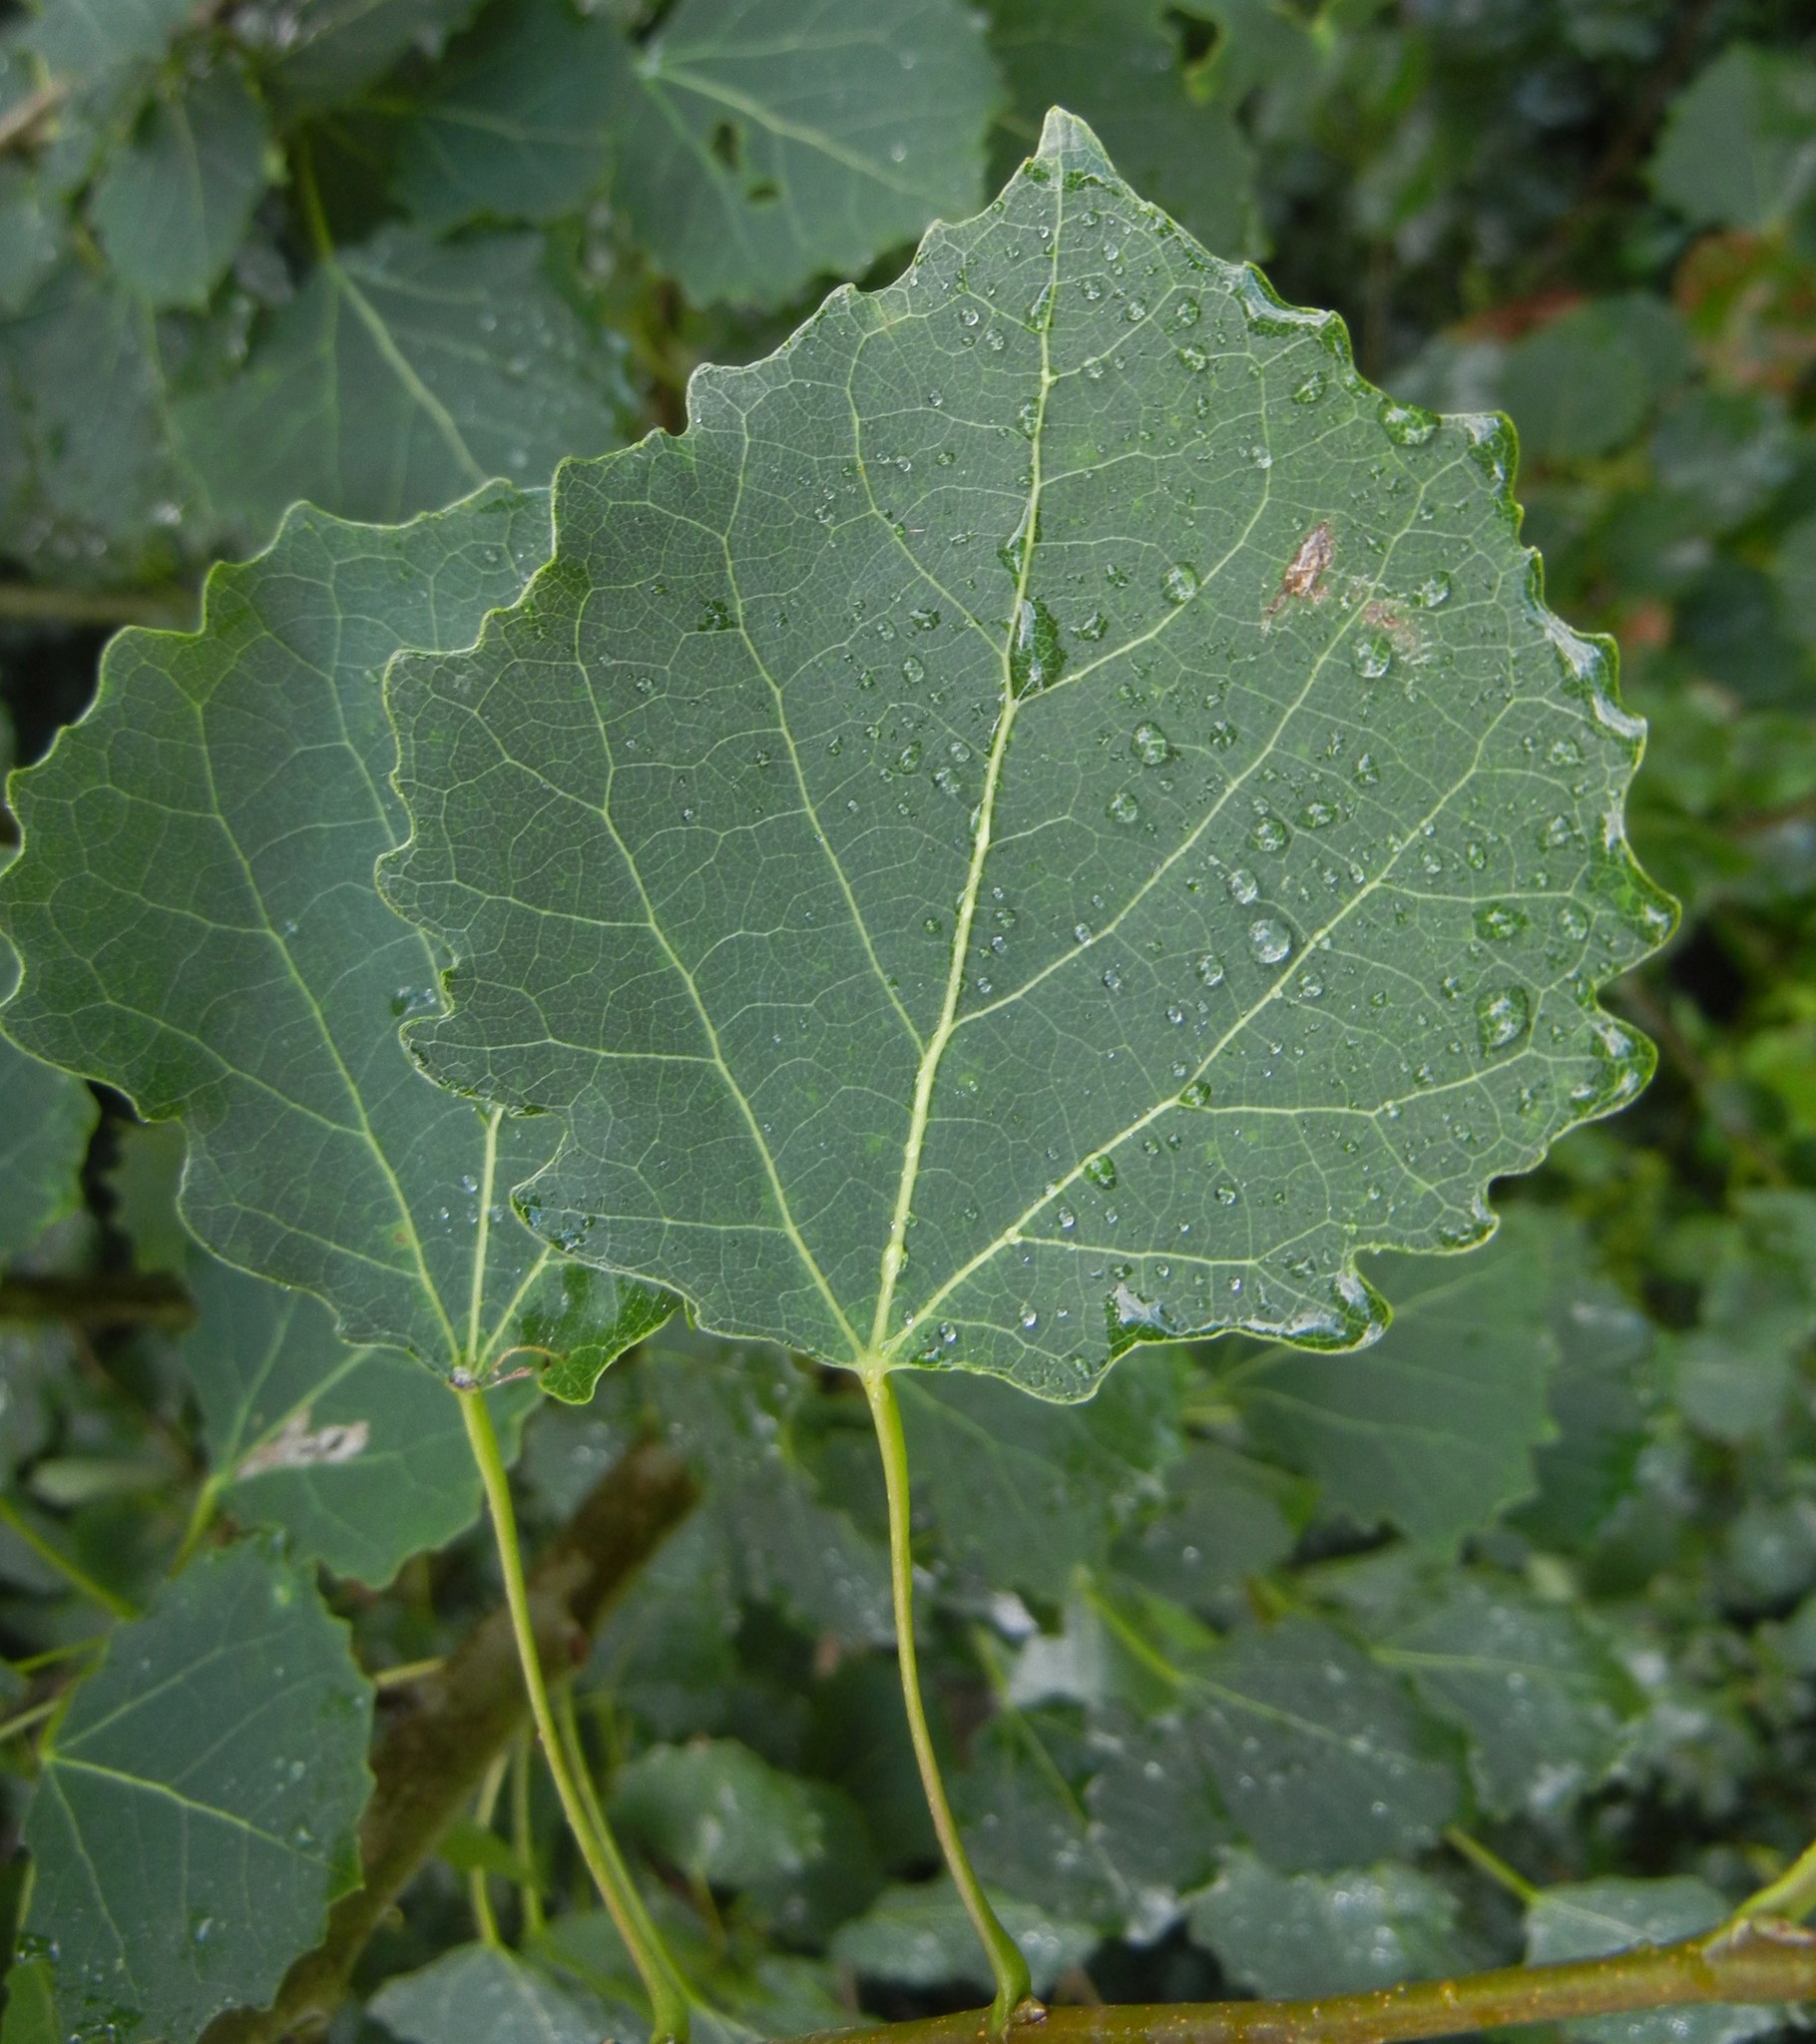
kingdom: Plantae
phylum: Tracheophyta
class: Magnoliopsida
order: Malpighiales
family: Salicaceae
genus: Populus
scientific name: Populus tremula
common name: European aspen
